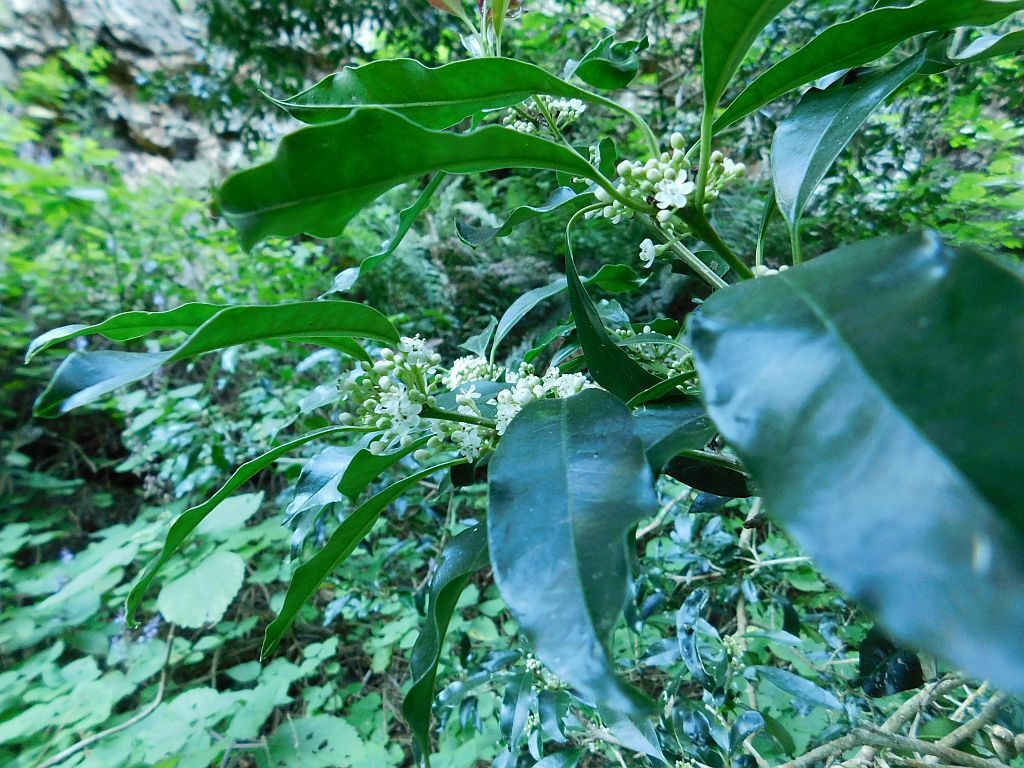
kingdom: Plantae
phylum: Tracheophyta
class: Magnoliopsida
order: Aquifoliales
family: Aquifoliaceae
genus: Ilex
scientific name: Ilex mitis
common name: African holly
